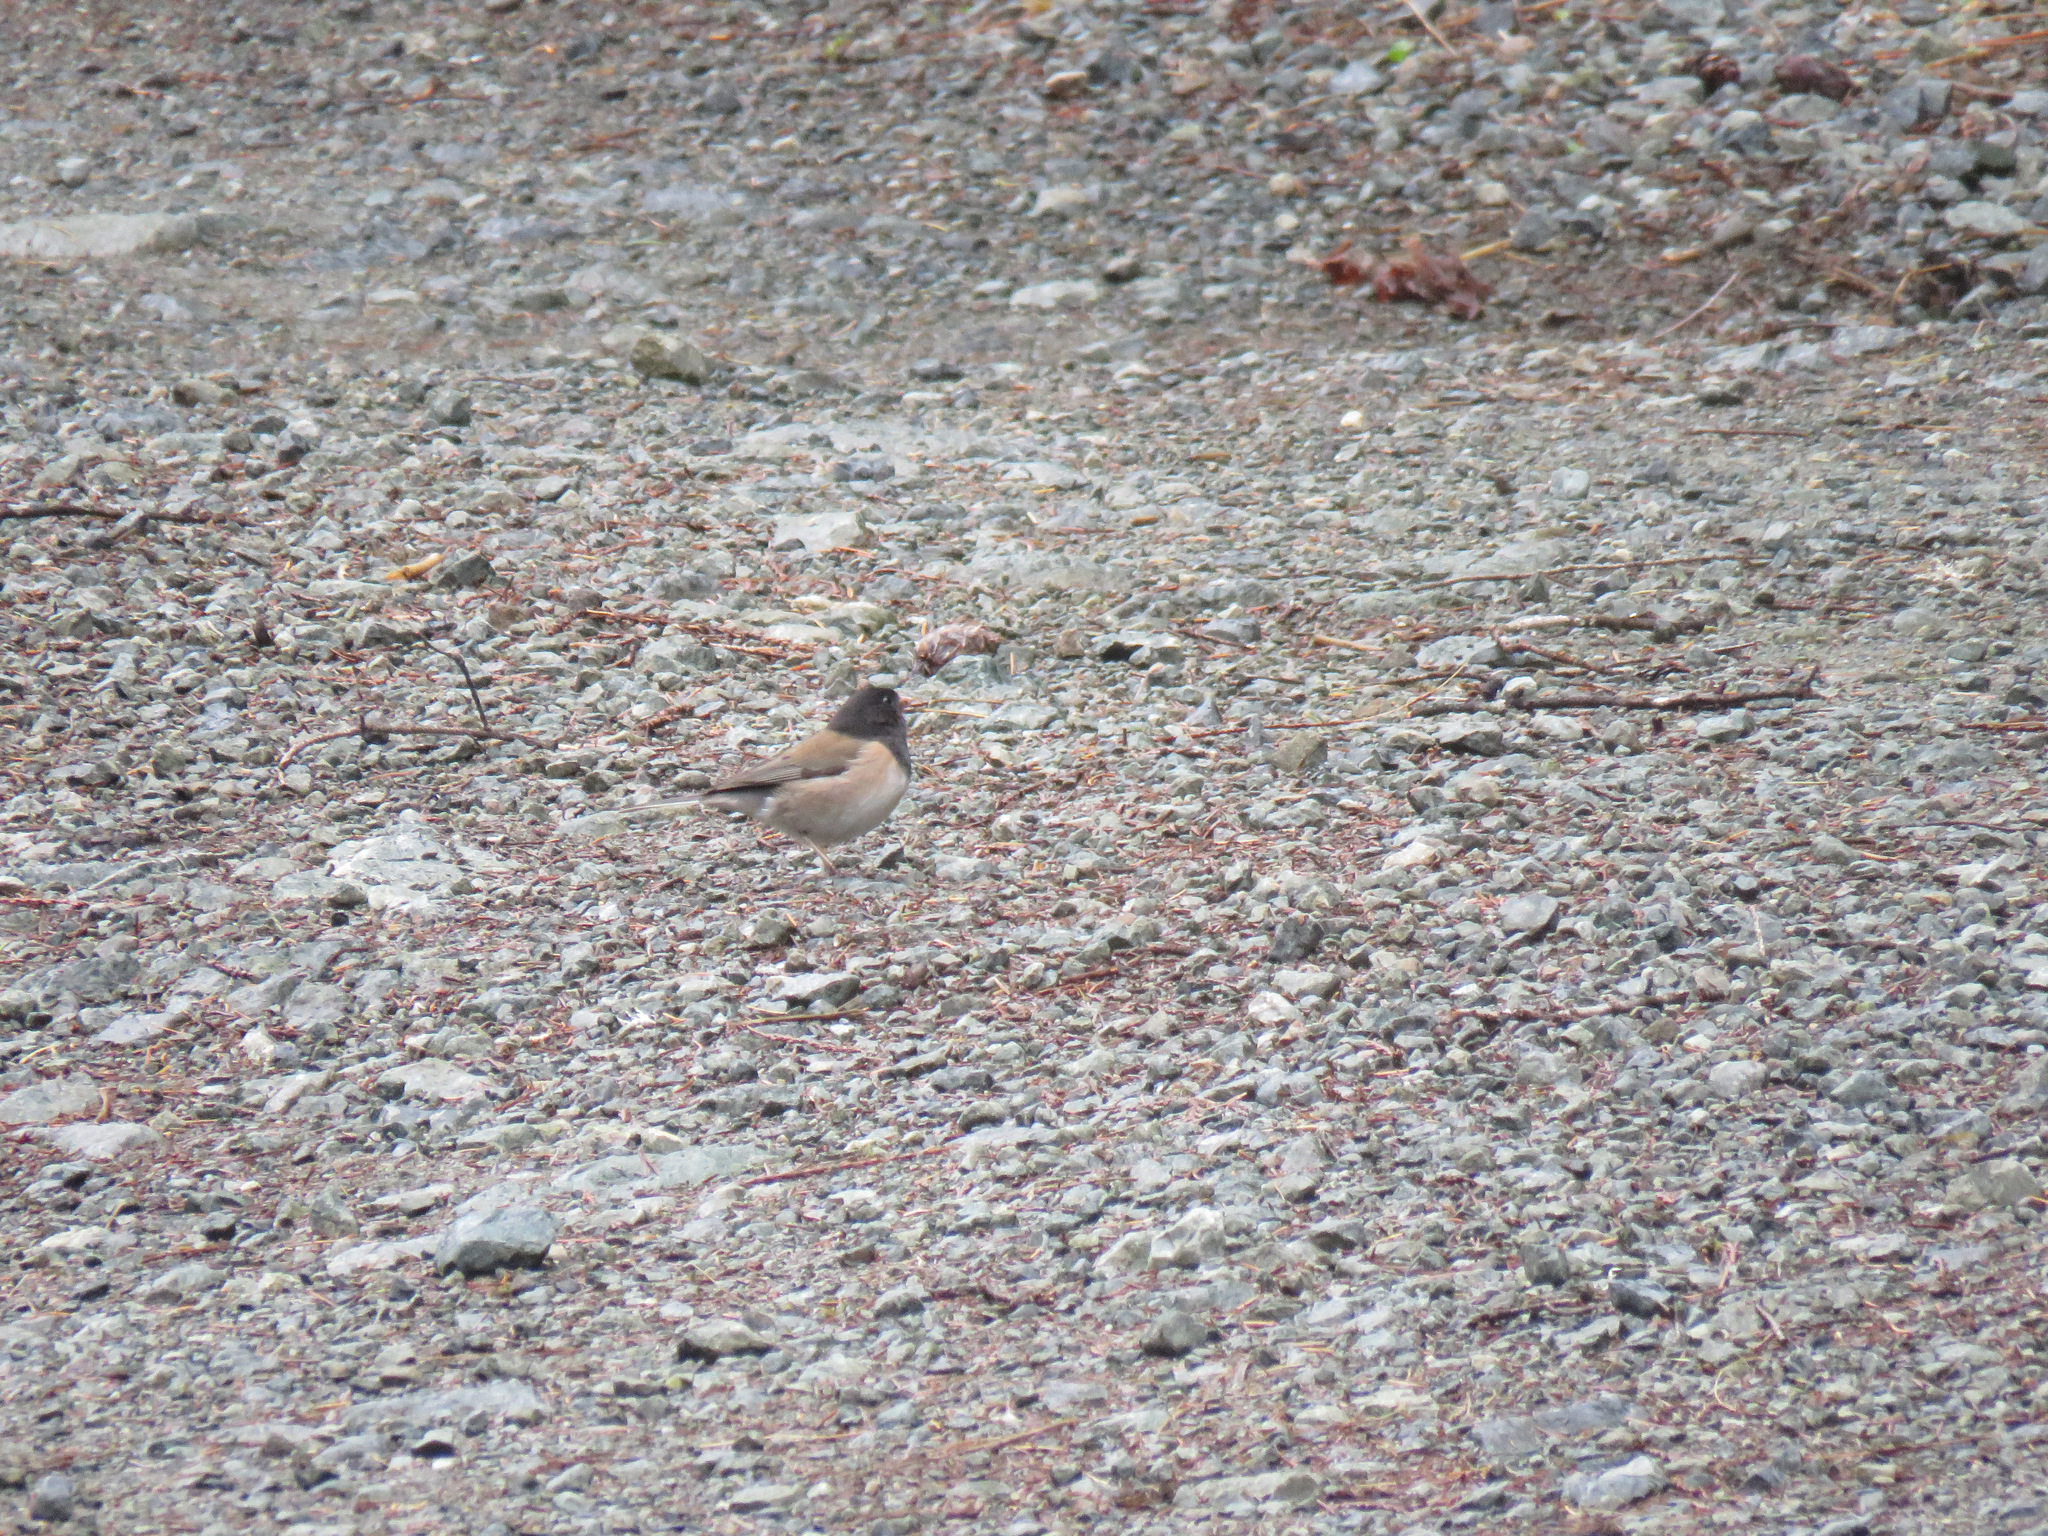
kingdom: Animalia
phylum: Chordata
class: Aves
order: Passeriformes
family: Passerellidae
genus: Junco
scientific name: Junco hyemalis
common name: Dark-eyed junco
